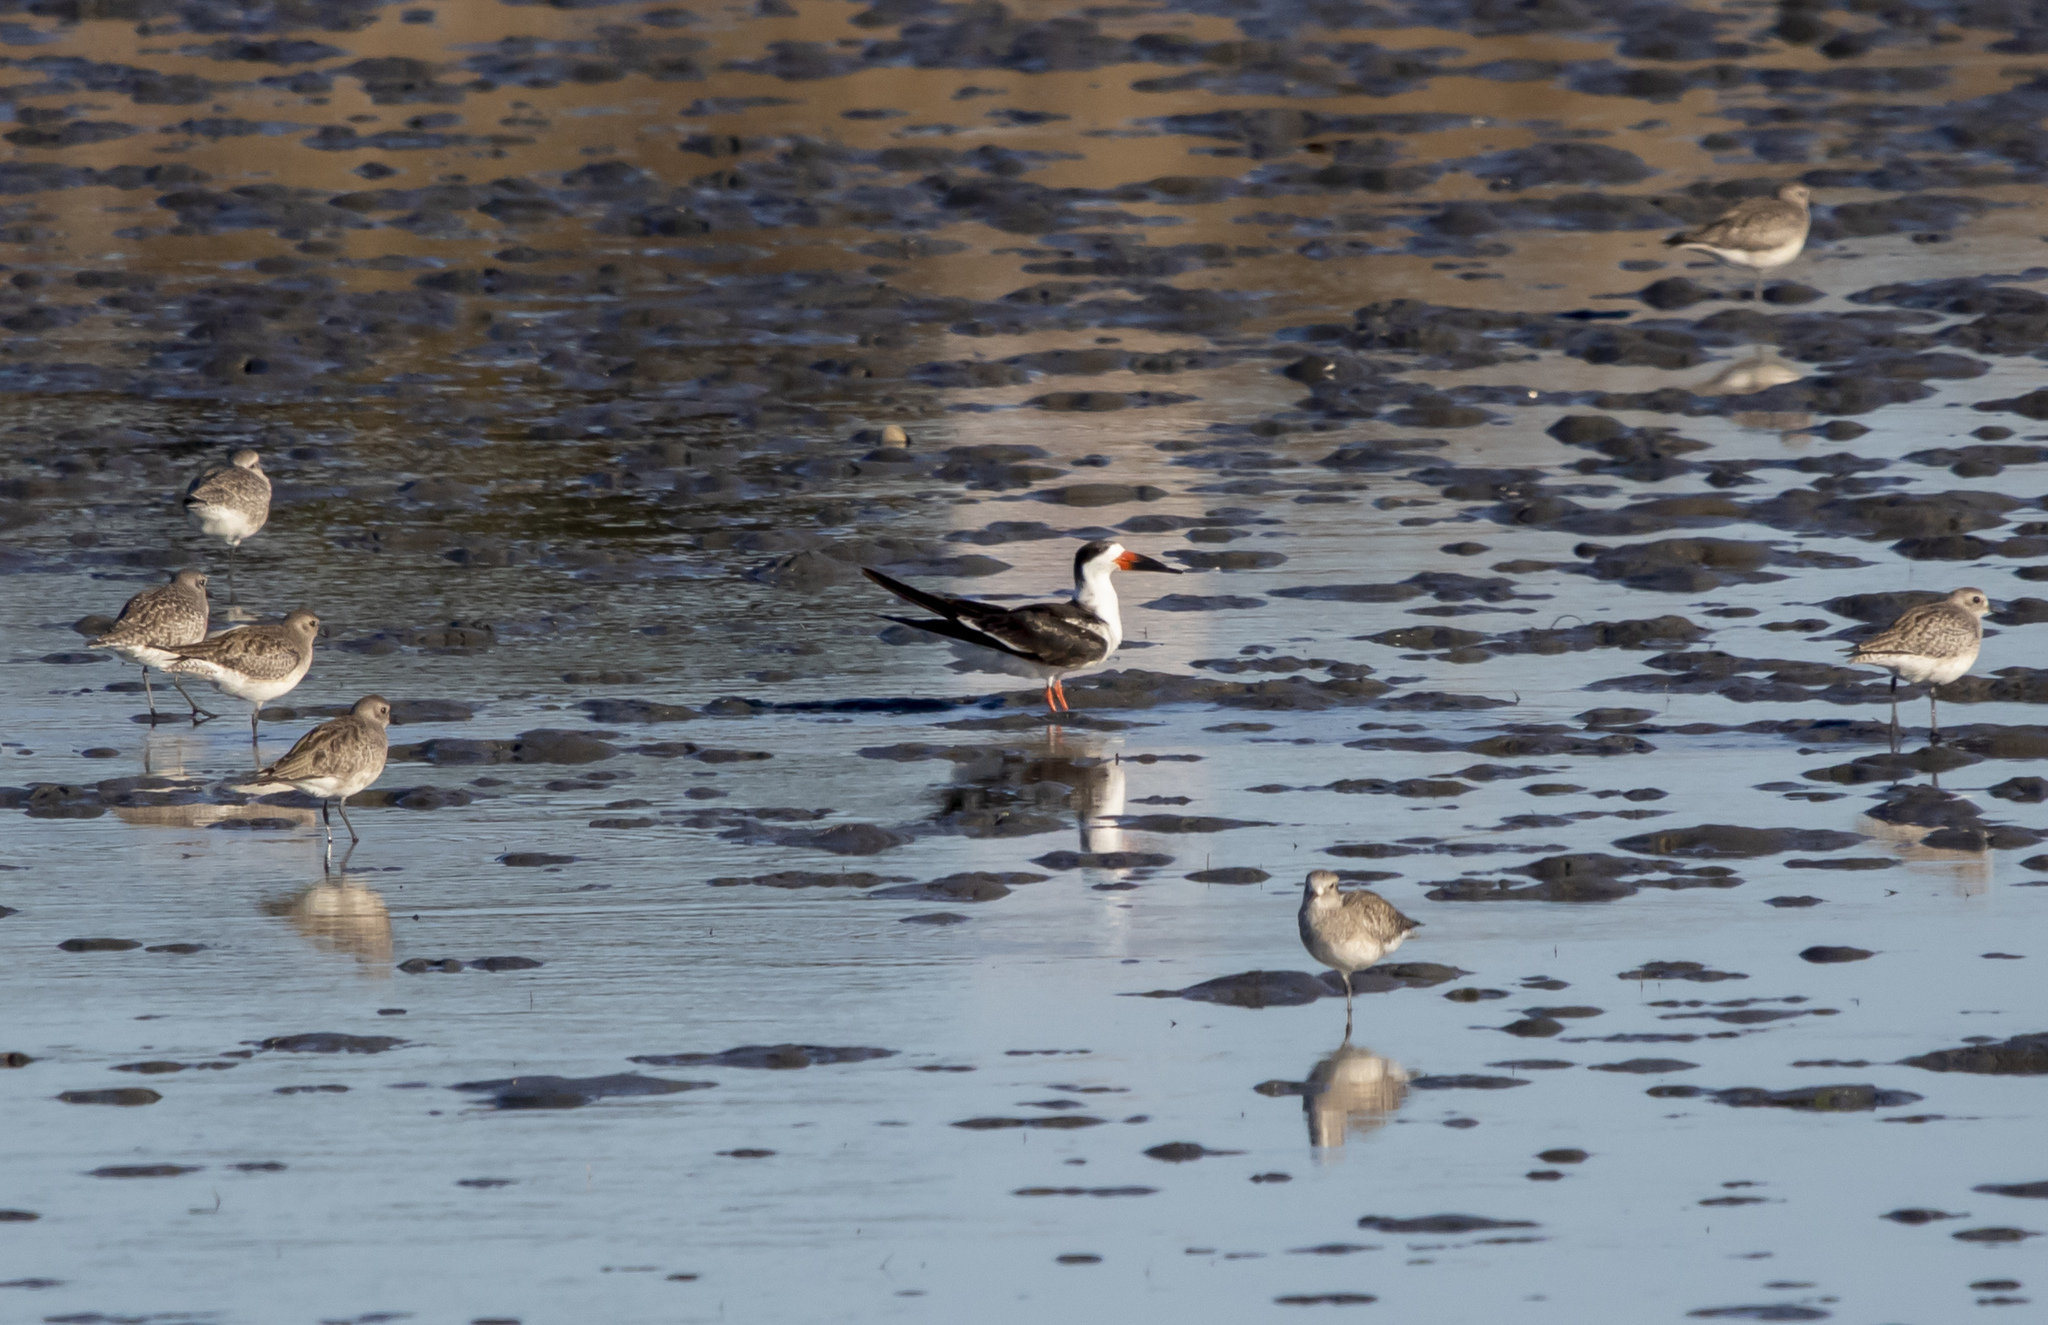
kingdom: Animalia
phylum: Chordata
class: Aves
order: Charadriiformes
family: Laridae
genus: Rynchops
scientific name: Rynchops niger
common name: Black skimmer
